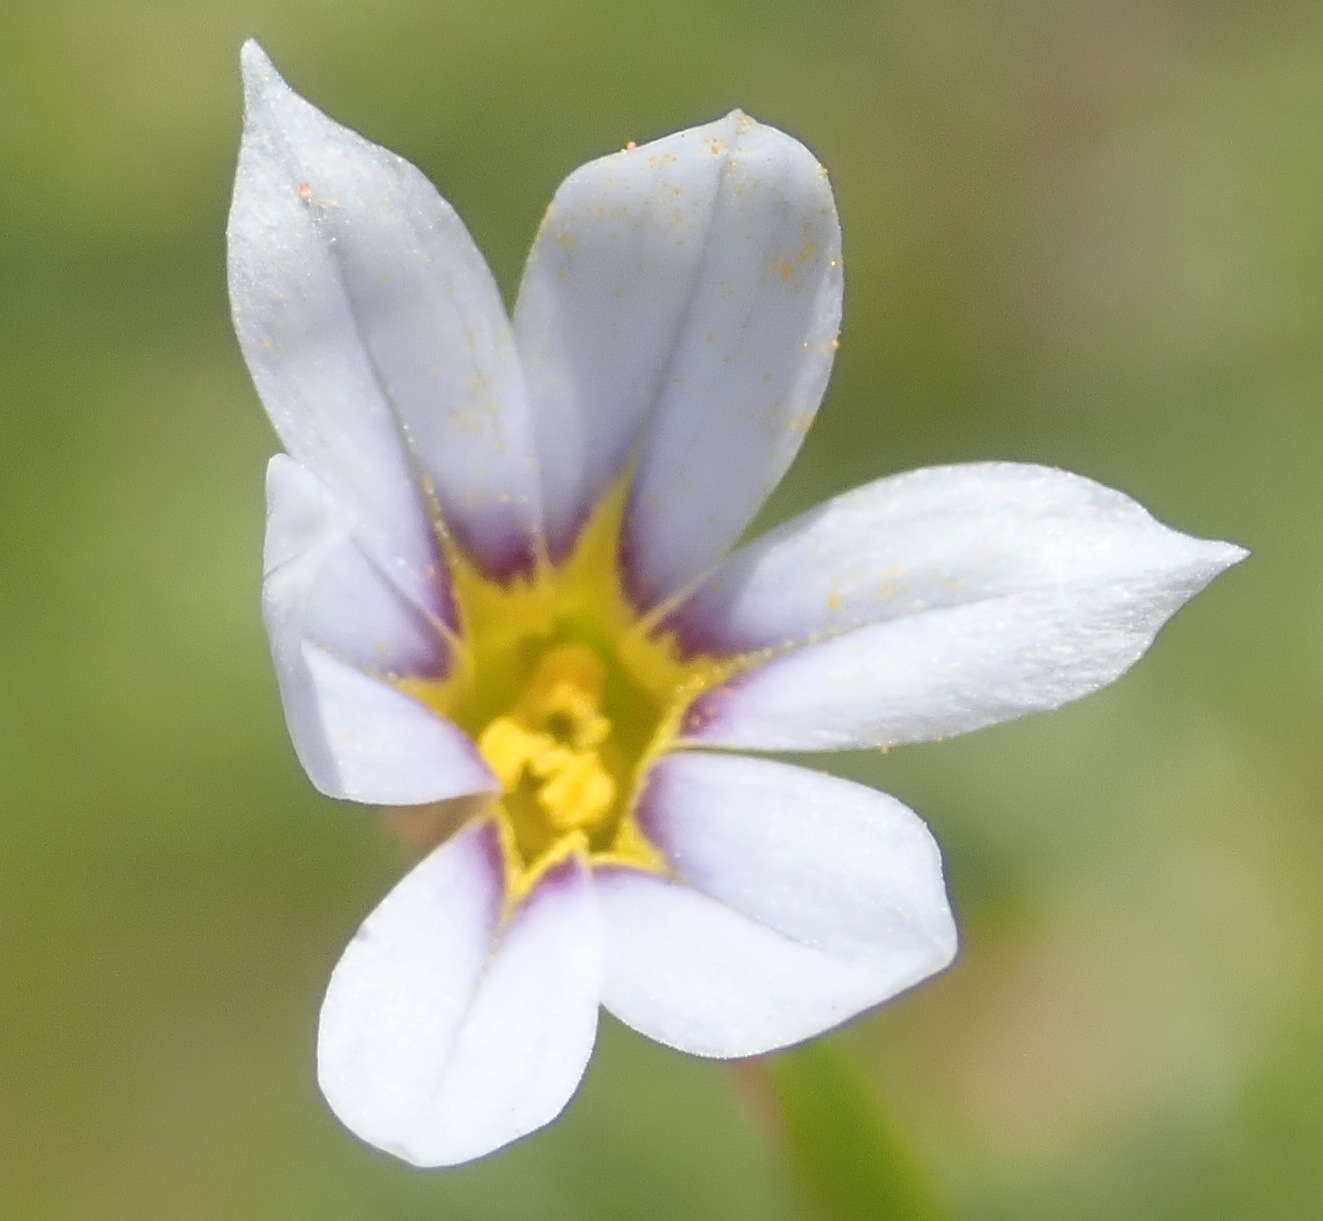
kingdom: Plantae
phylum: Tracheophyta
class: Liliopsida
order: Asparagales
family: Iridaceae
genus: Sisyrinchium
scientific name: Sisyrinchium micranthum
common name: Bermuda pigroot
